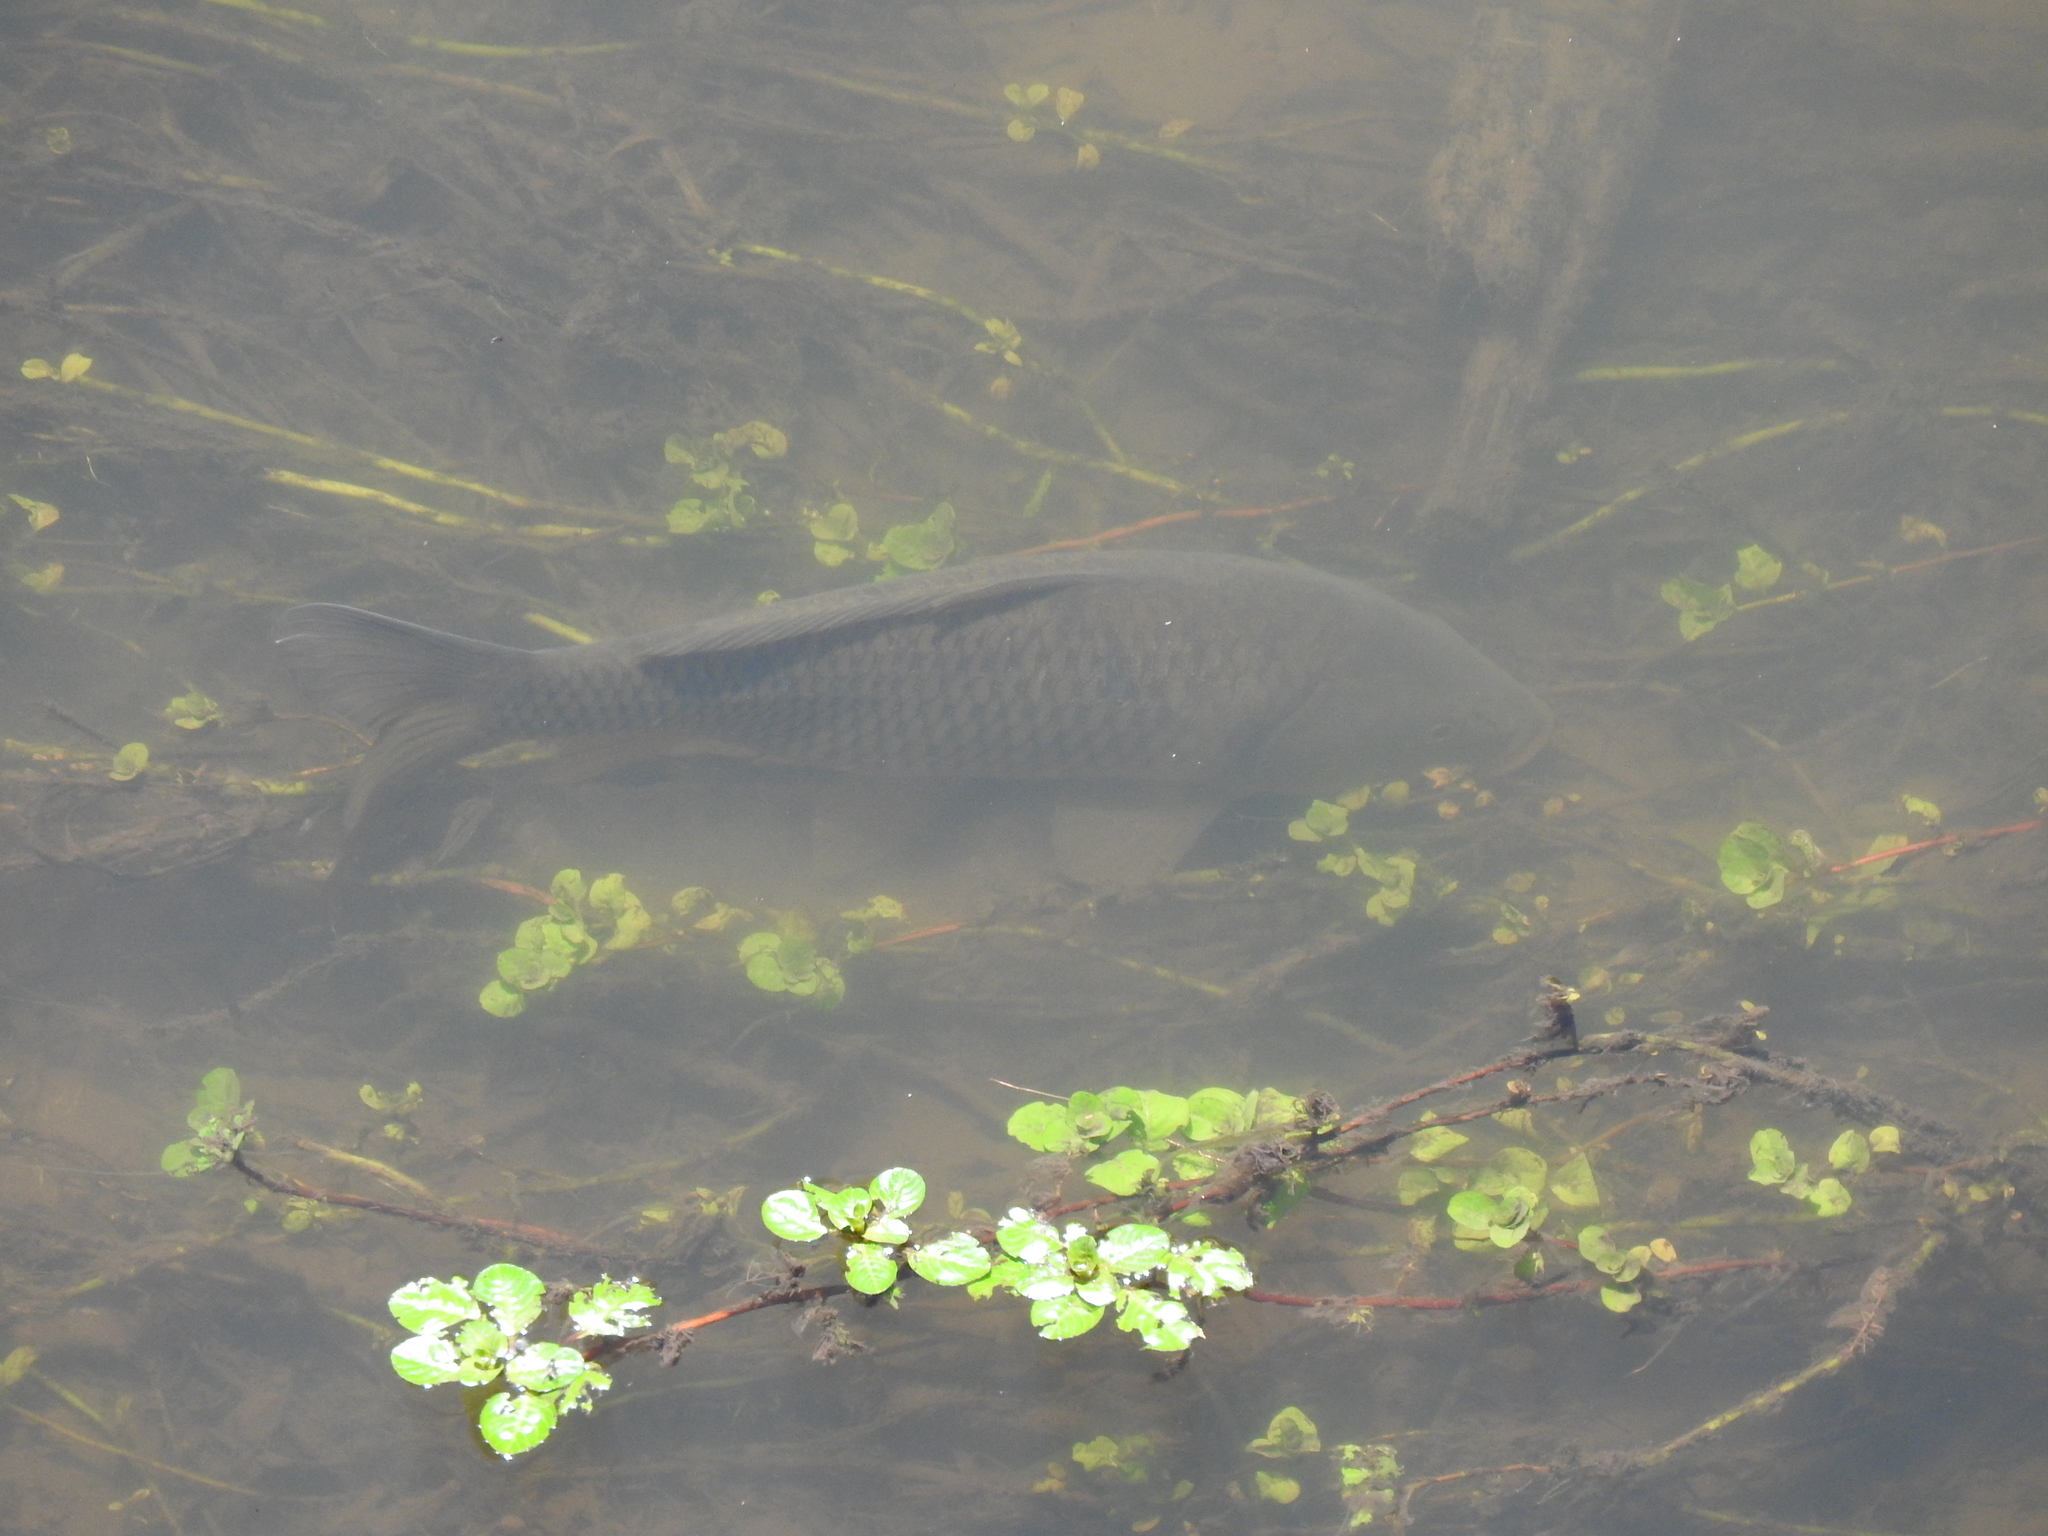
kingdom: Animalia
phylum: Chordata
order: Cypriniformes
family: Cyprinidae
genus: Cyprinus
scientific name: Cyprinus carpio
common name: Common carp
